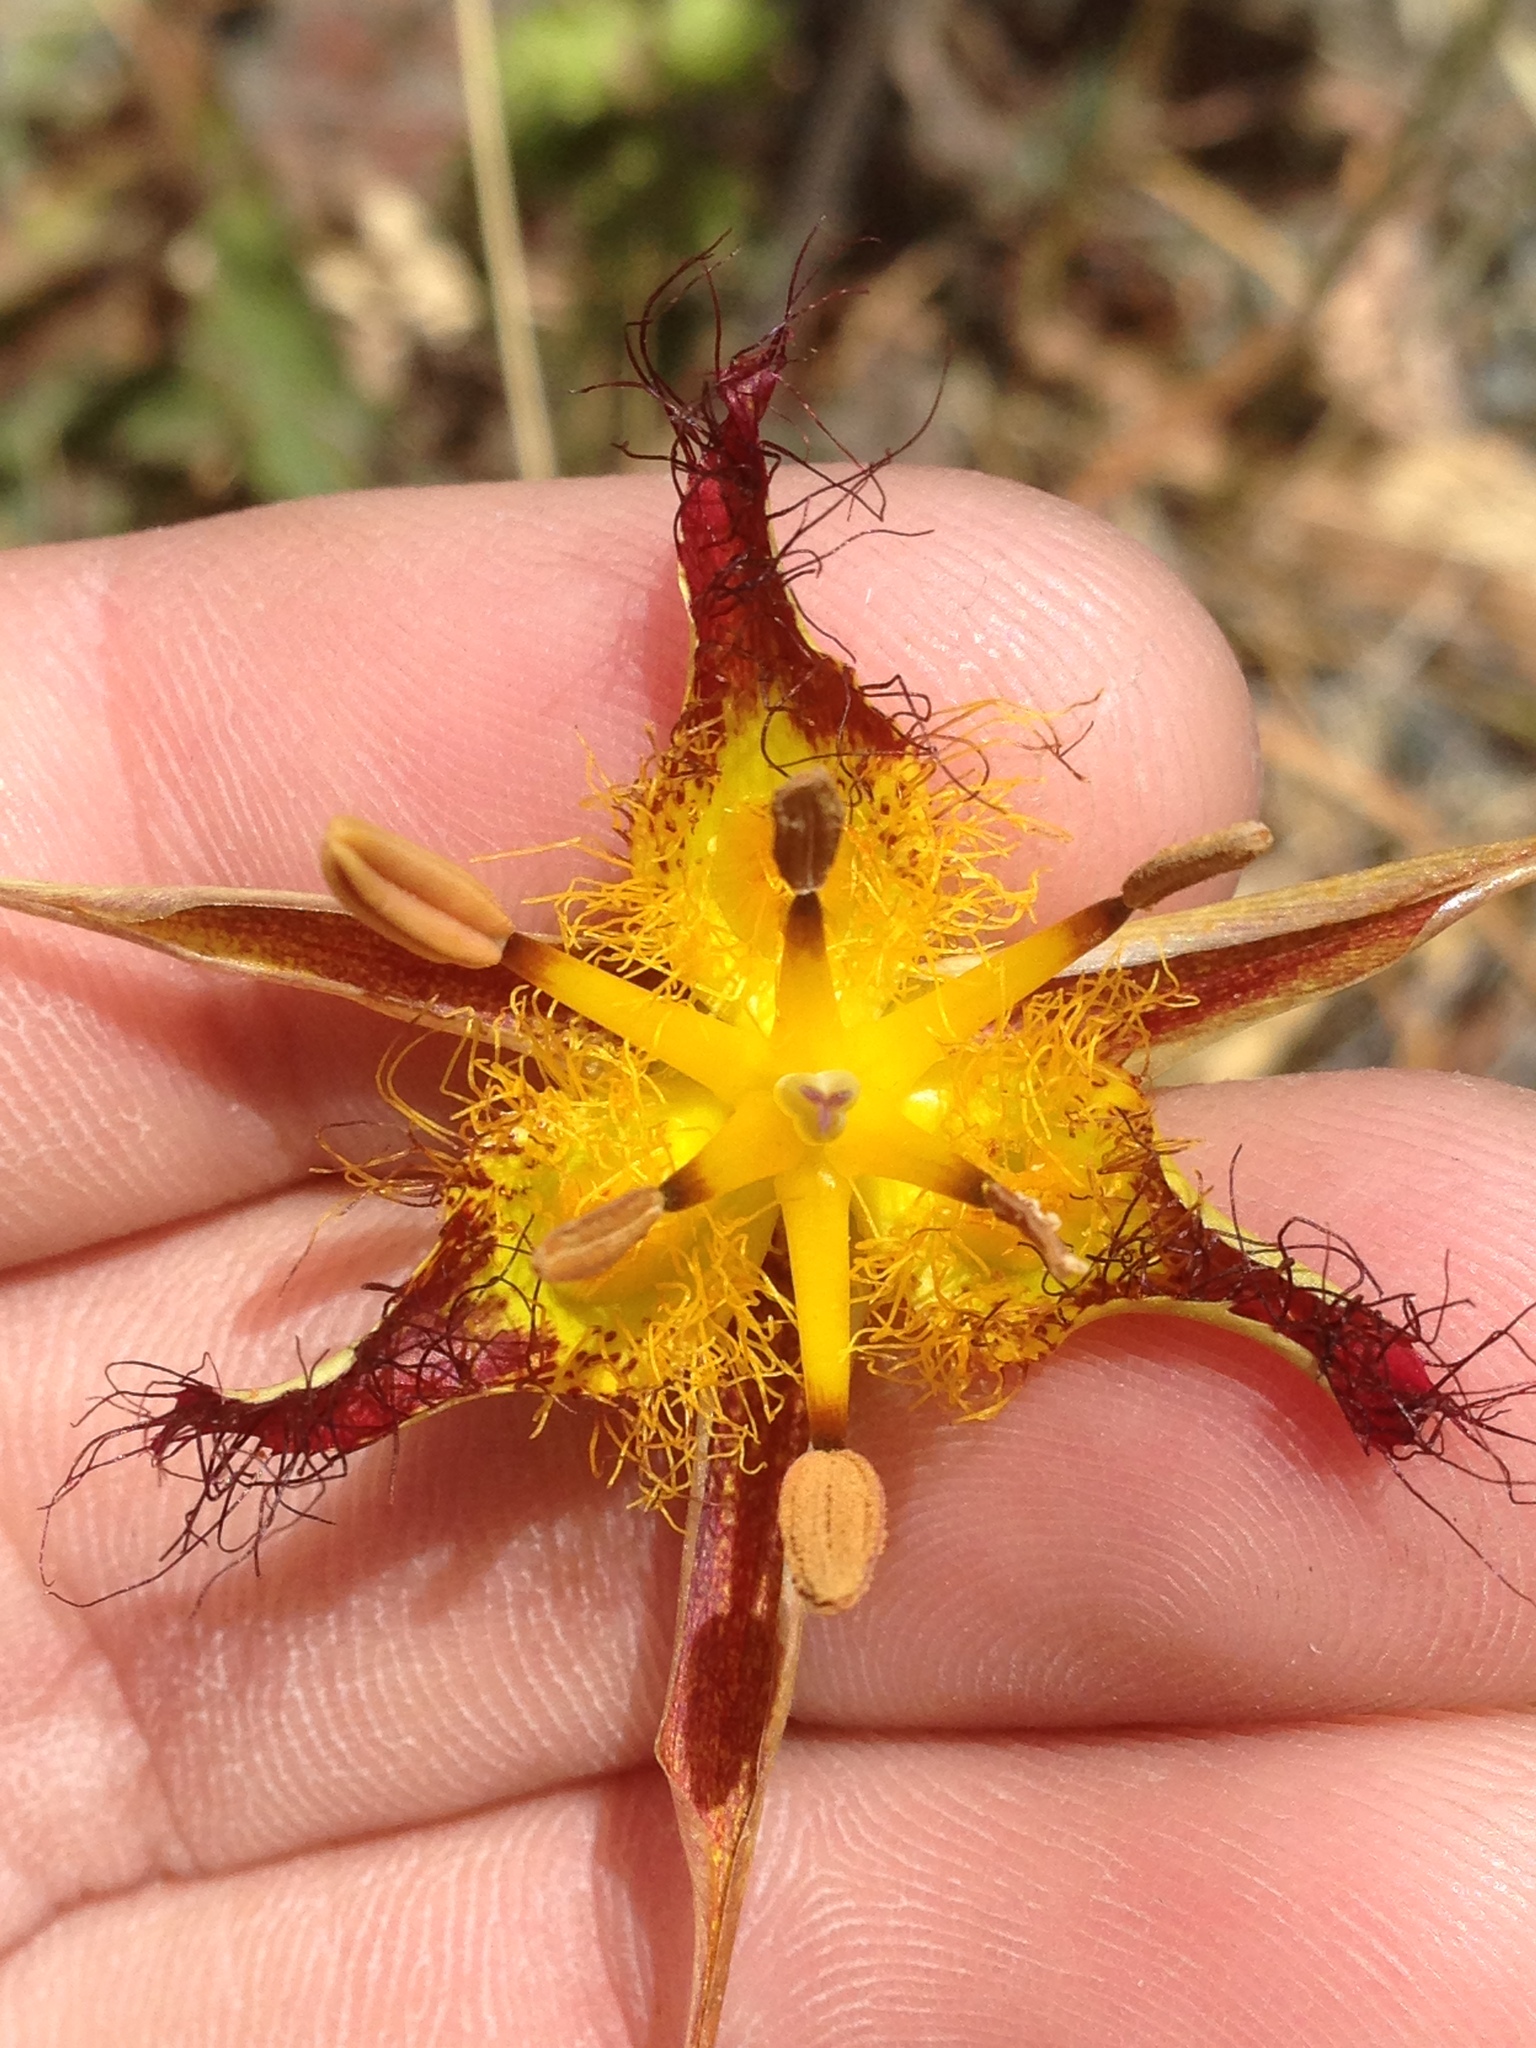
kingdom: Plantae
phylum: Tracheophyta
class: Liliopsida
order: Liliales
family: Liliaceae
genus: Calochortus
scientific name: Calochortus obispoensis
